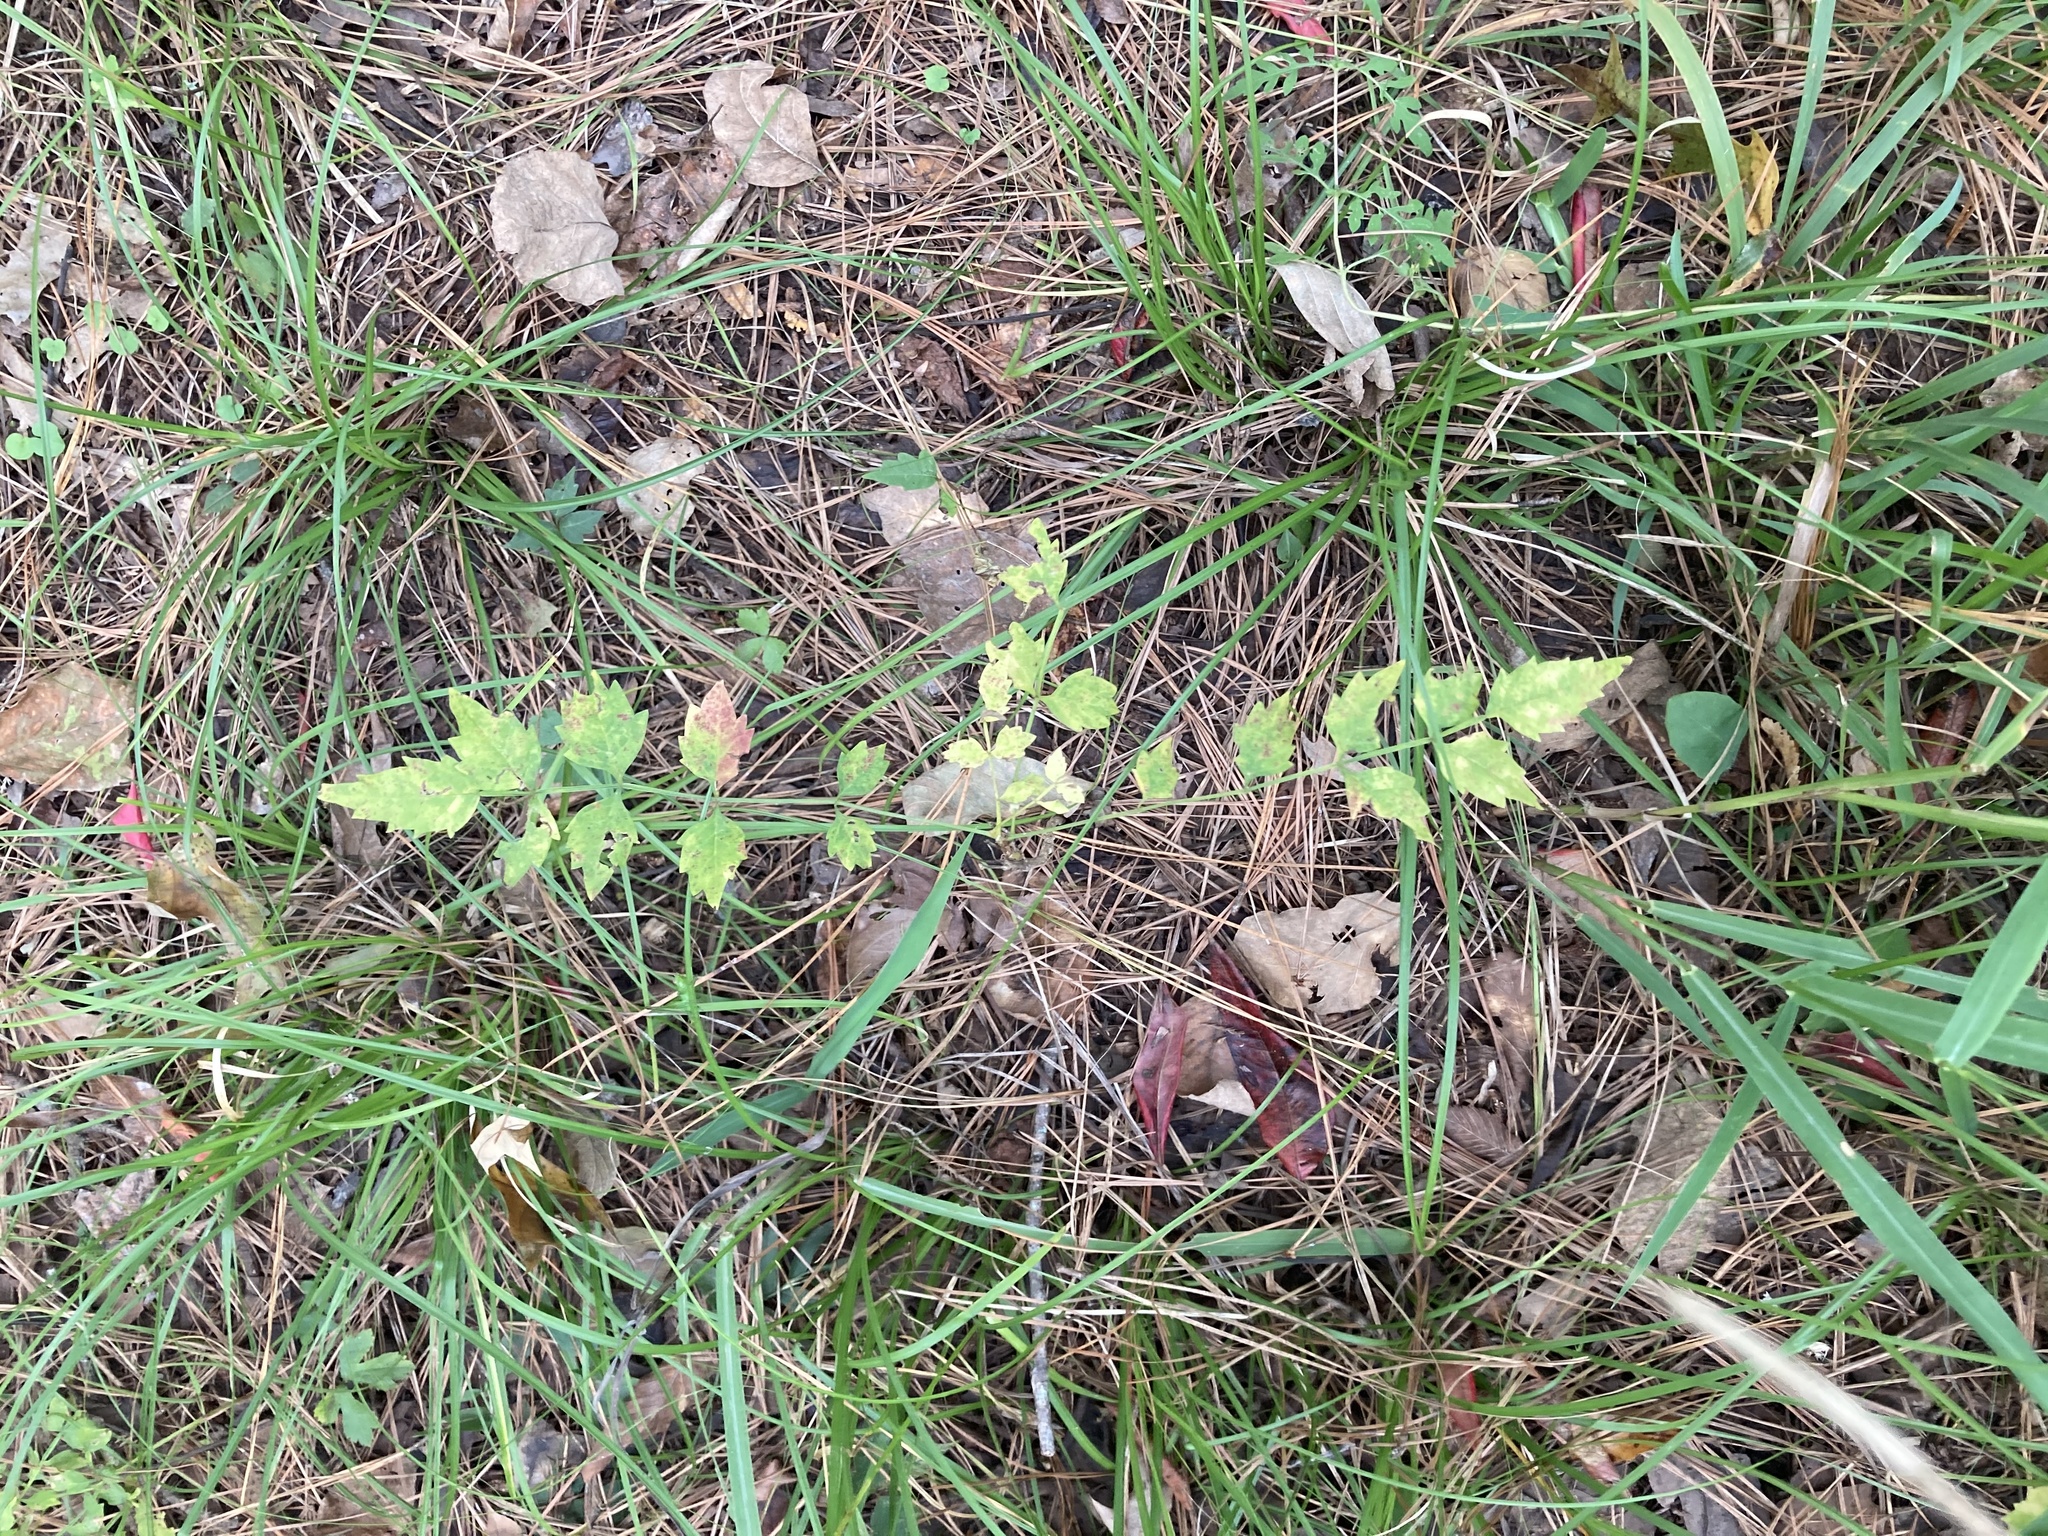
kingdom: Plantae
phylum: Tracheophyta
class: Magnoliopsida
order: Lamiales
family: Bignoniaceae
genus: Campsis
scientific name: Campsis radicans
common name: Trumpet-creeper
